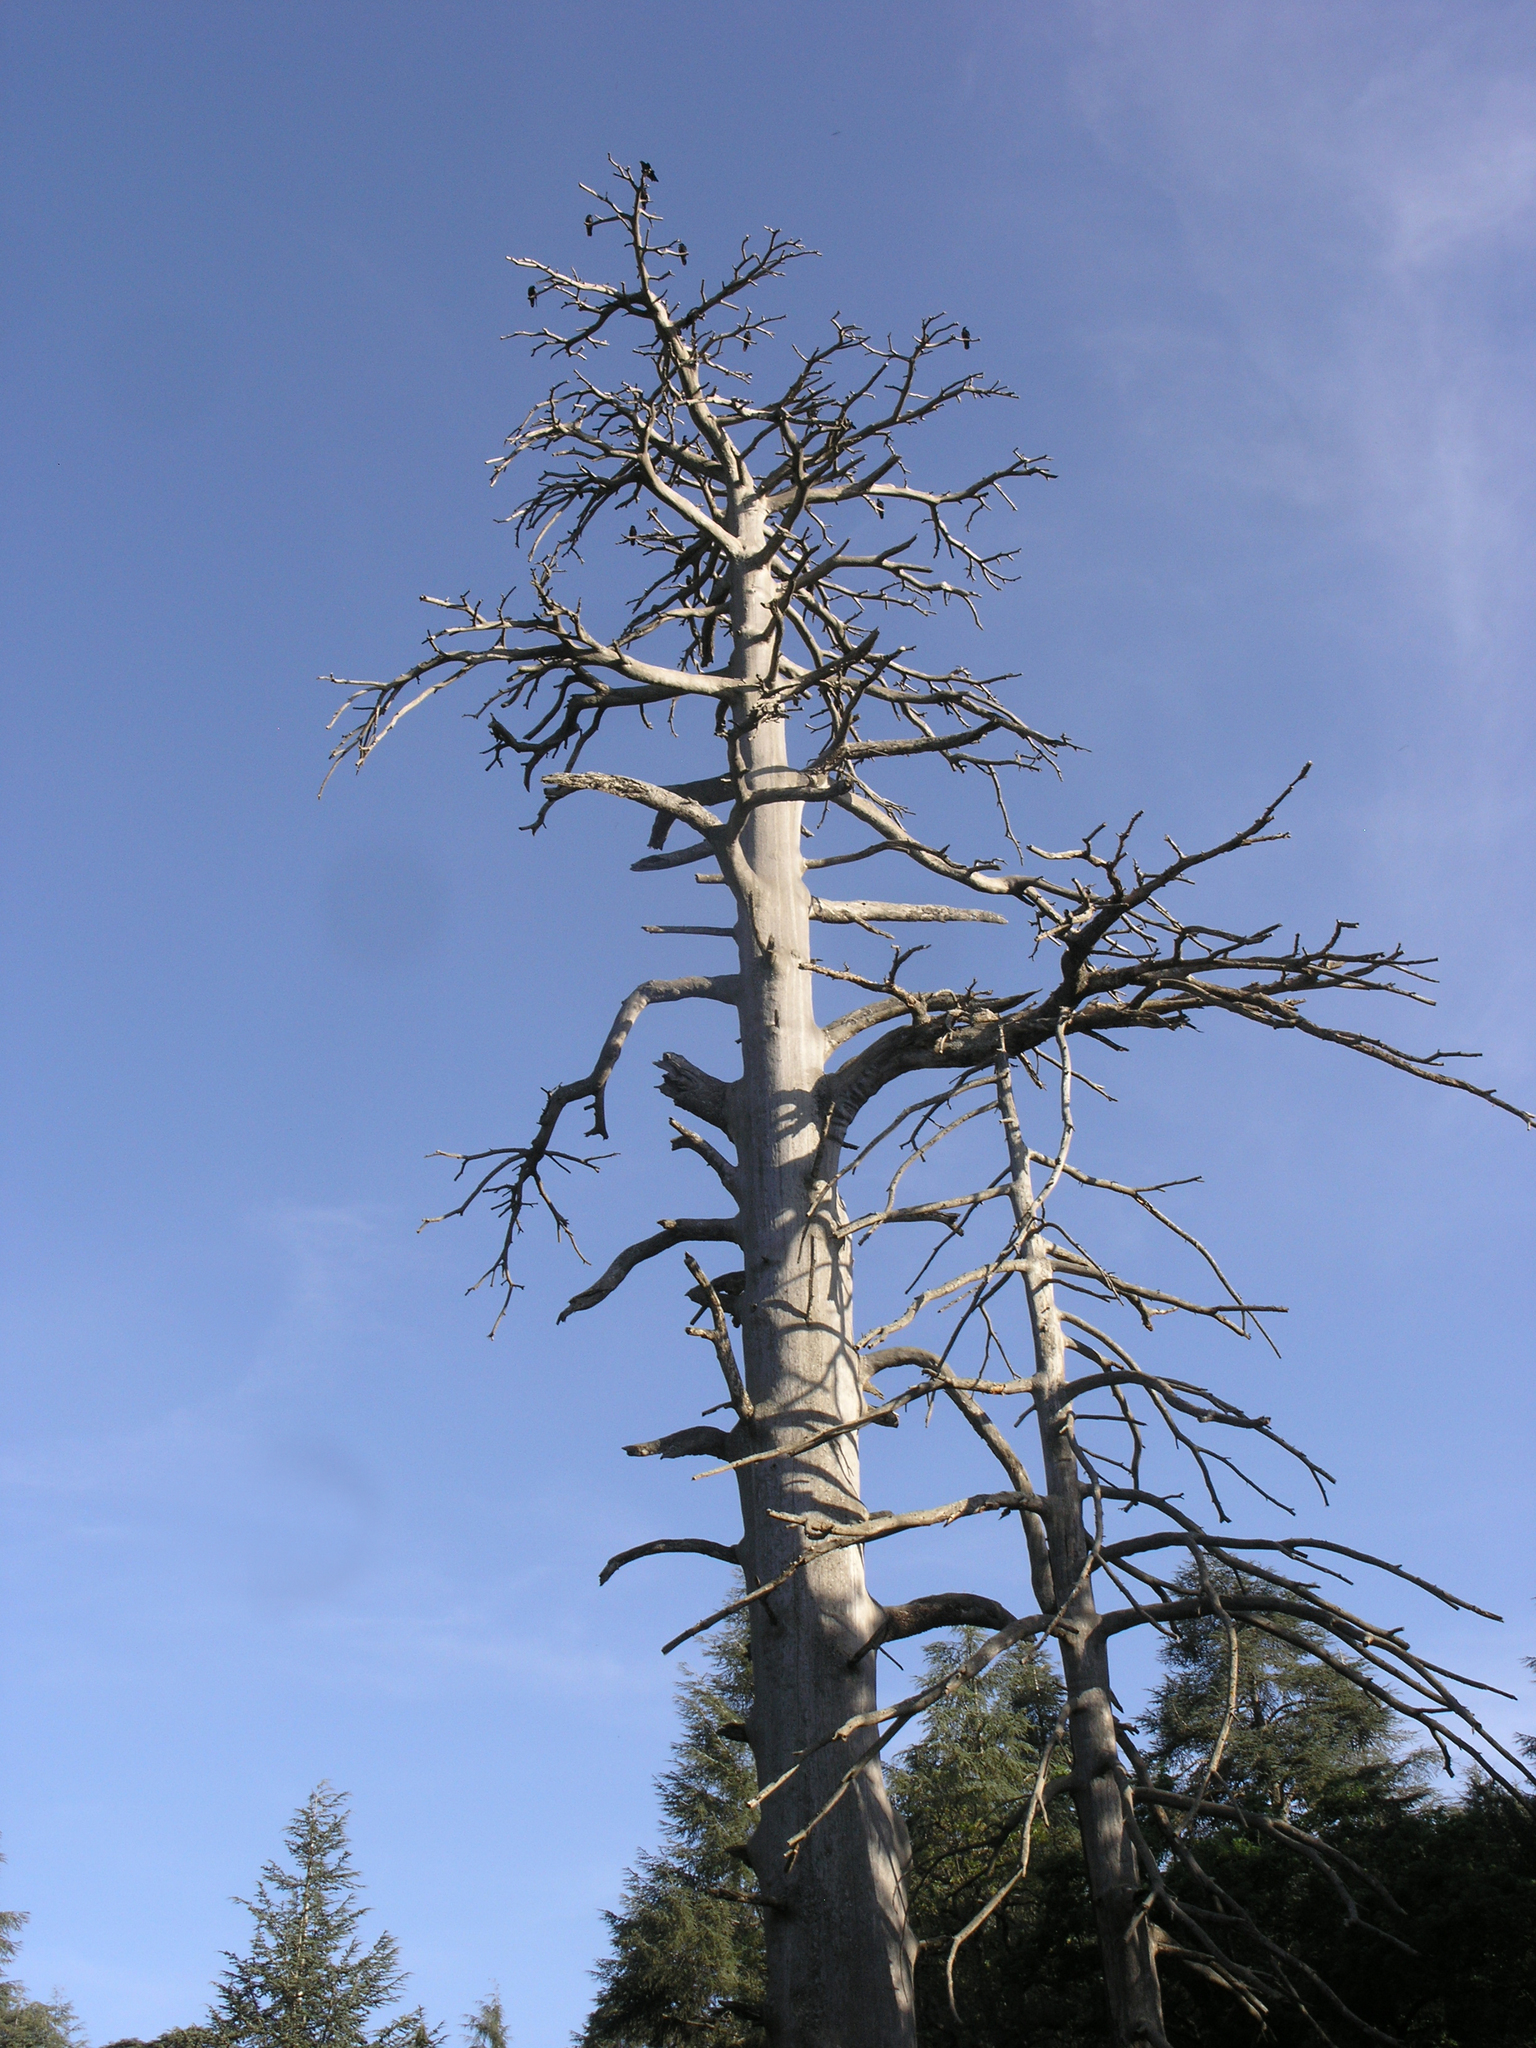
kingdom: Plantae
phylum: Tracheophyta
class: Pinopsida
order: Pinales
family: Pinaceae
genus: Cedrus
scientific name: Cedrus atlantica
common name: Atlas cedar
